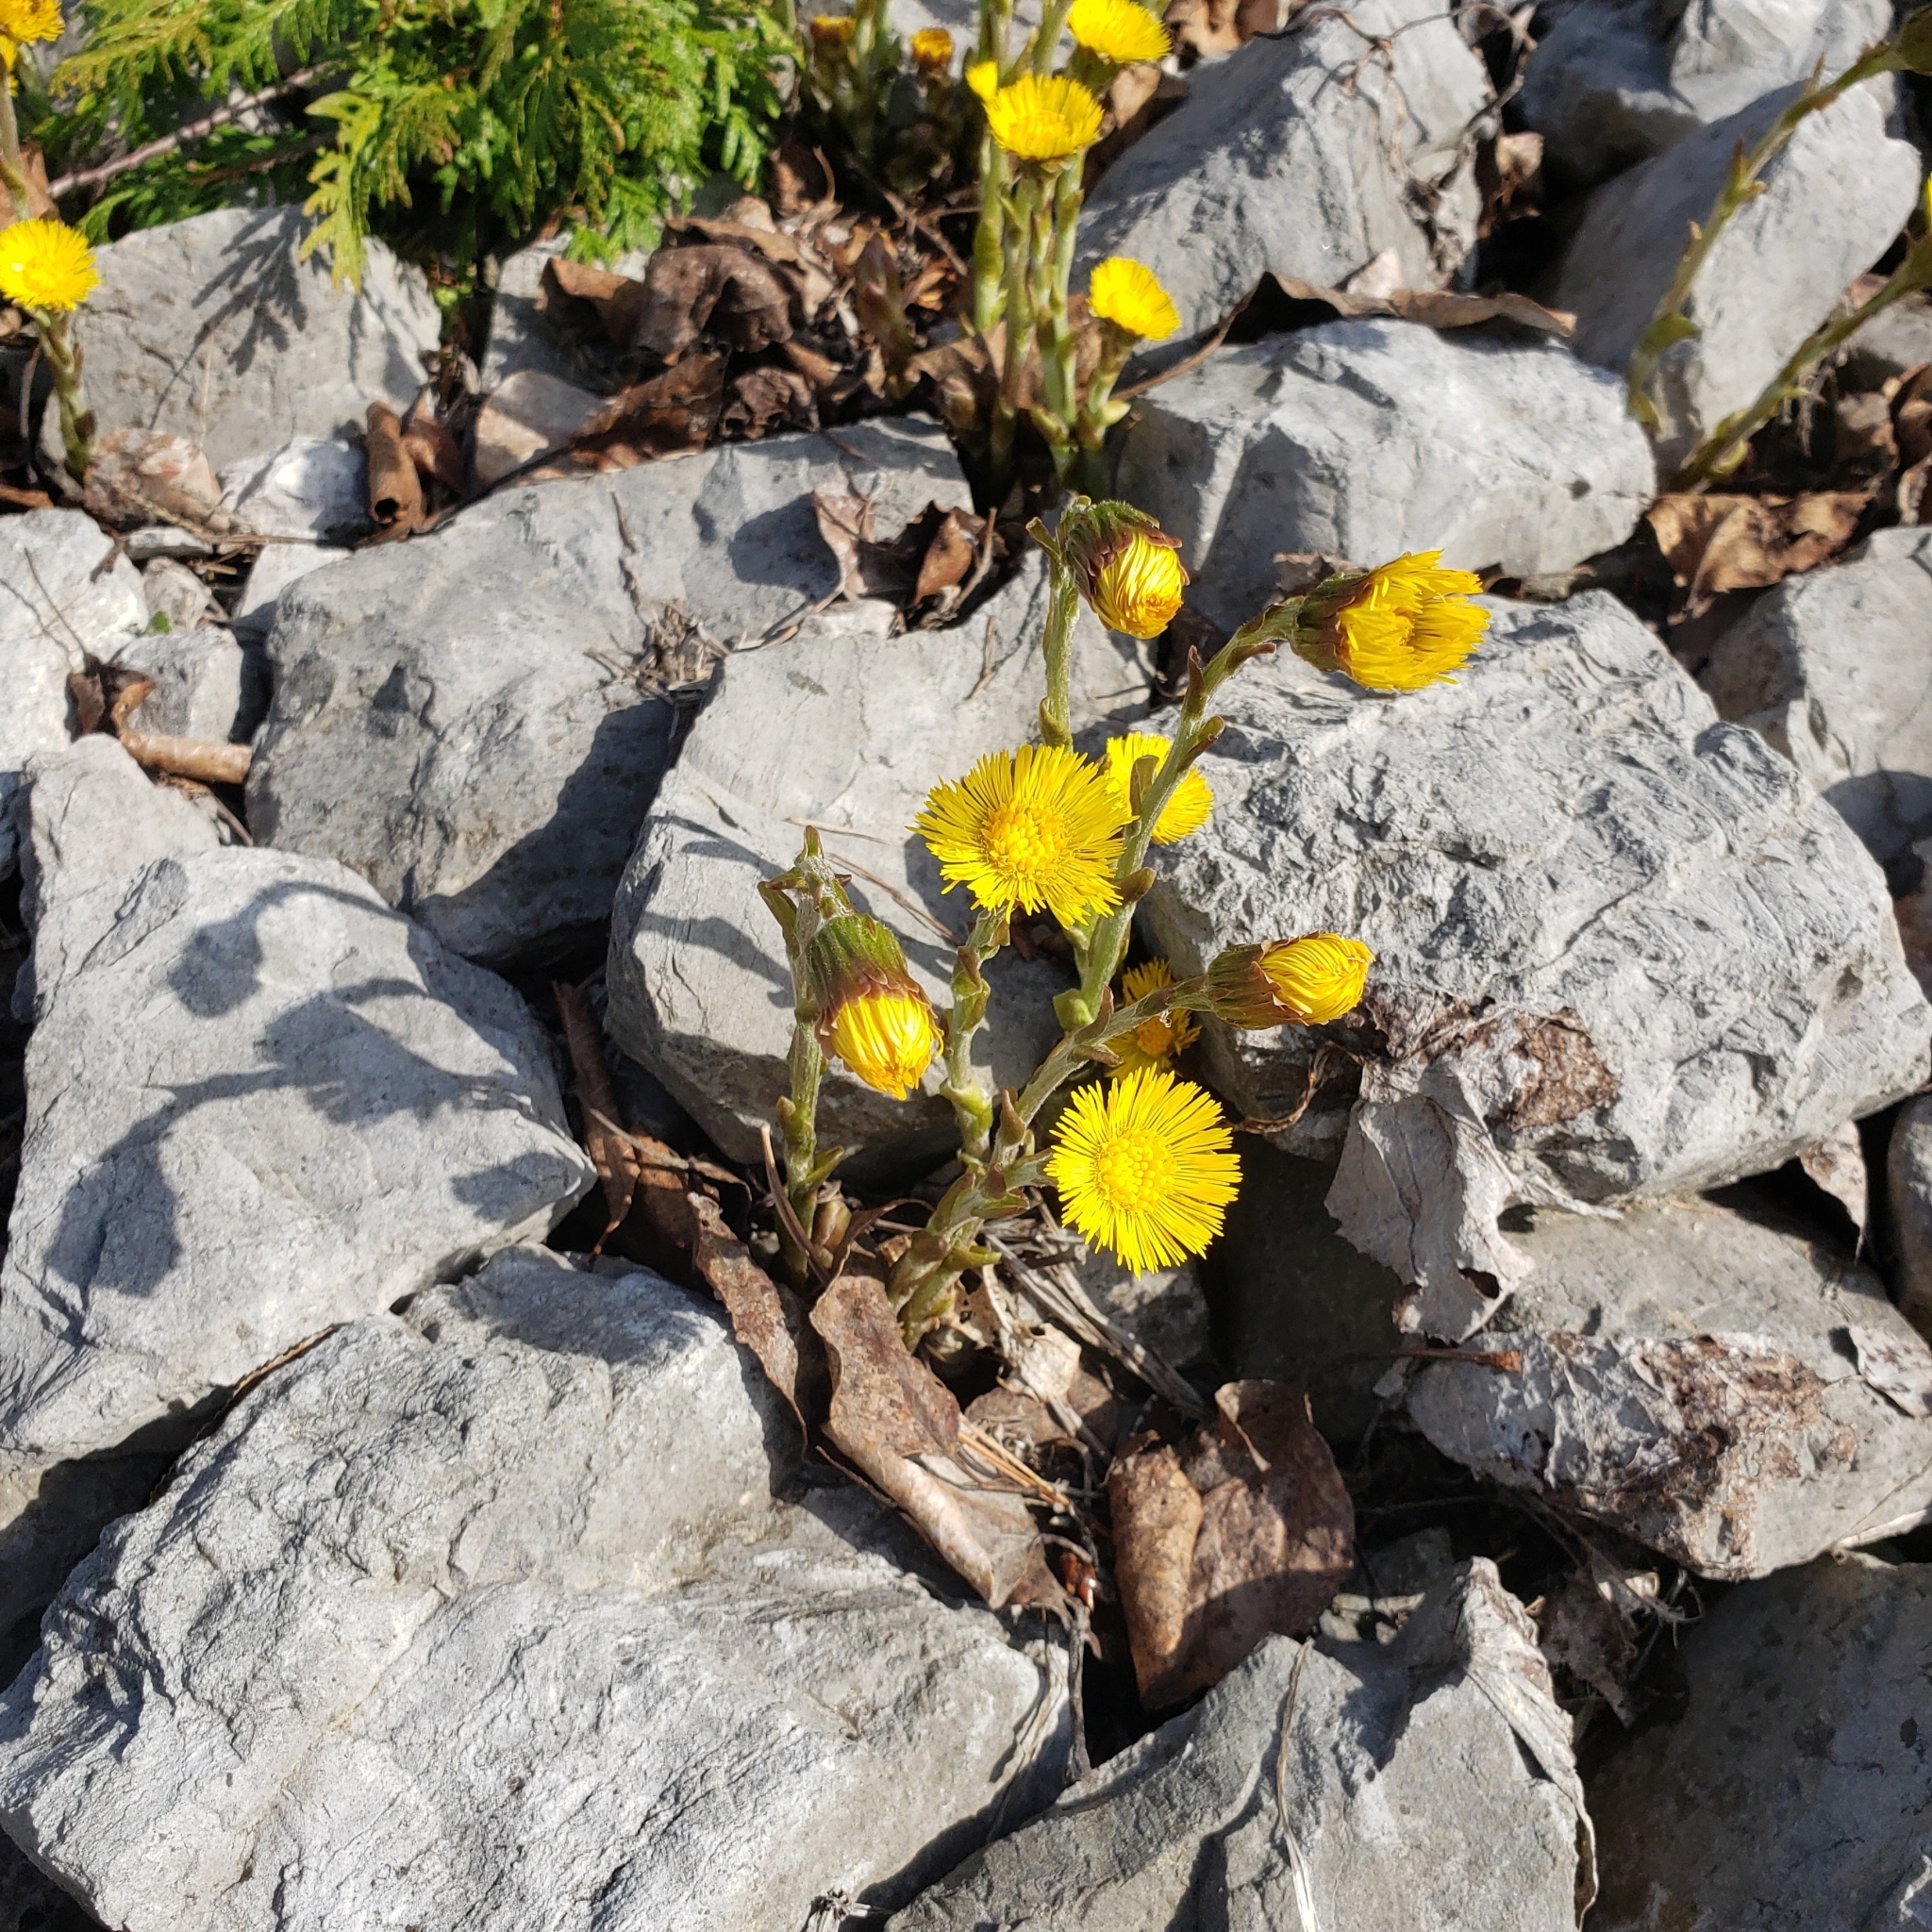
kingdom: Plantae
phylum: Tracheophyta
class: Magnoliopsida
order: Asterales
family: Asteraceae
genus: Tussilago
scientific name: Tussilago farfara
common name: Coltsfoot
